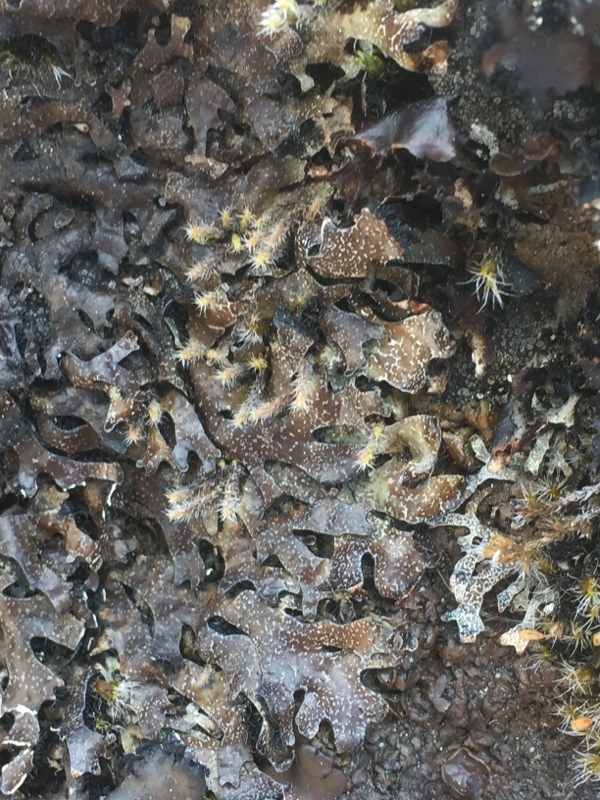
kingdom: Fungi
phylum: Ascomycota
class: Lecanoromycetes
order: Lecanorales
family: Parmeliaceae
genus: Parmelia
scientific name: Parmelia omphalodes
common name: Smoky crottle
